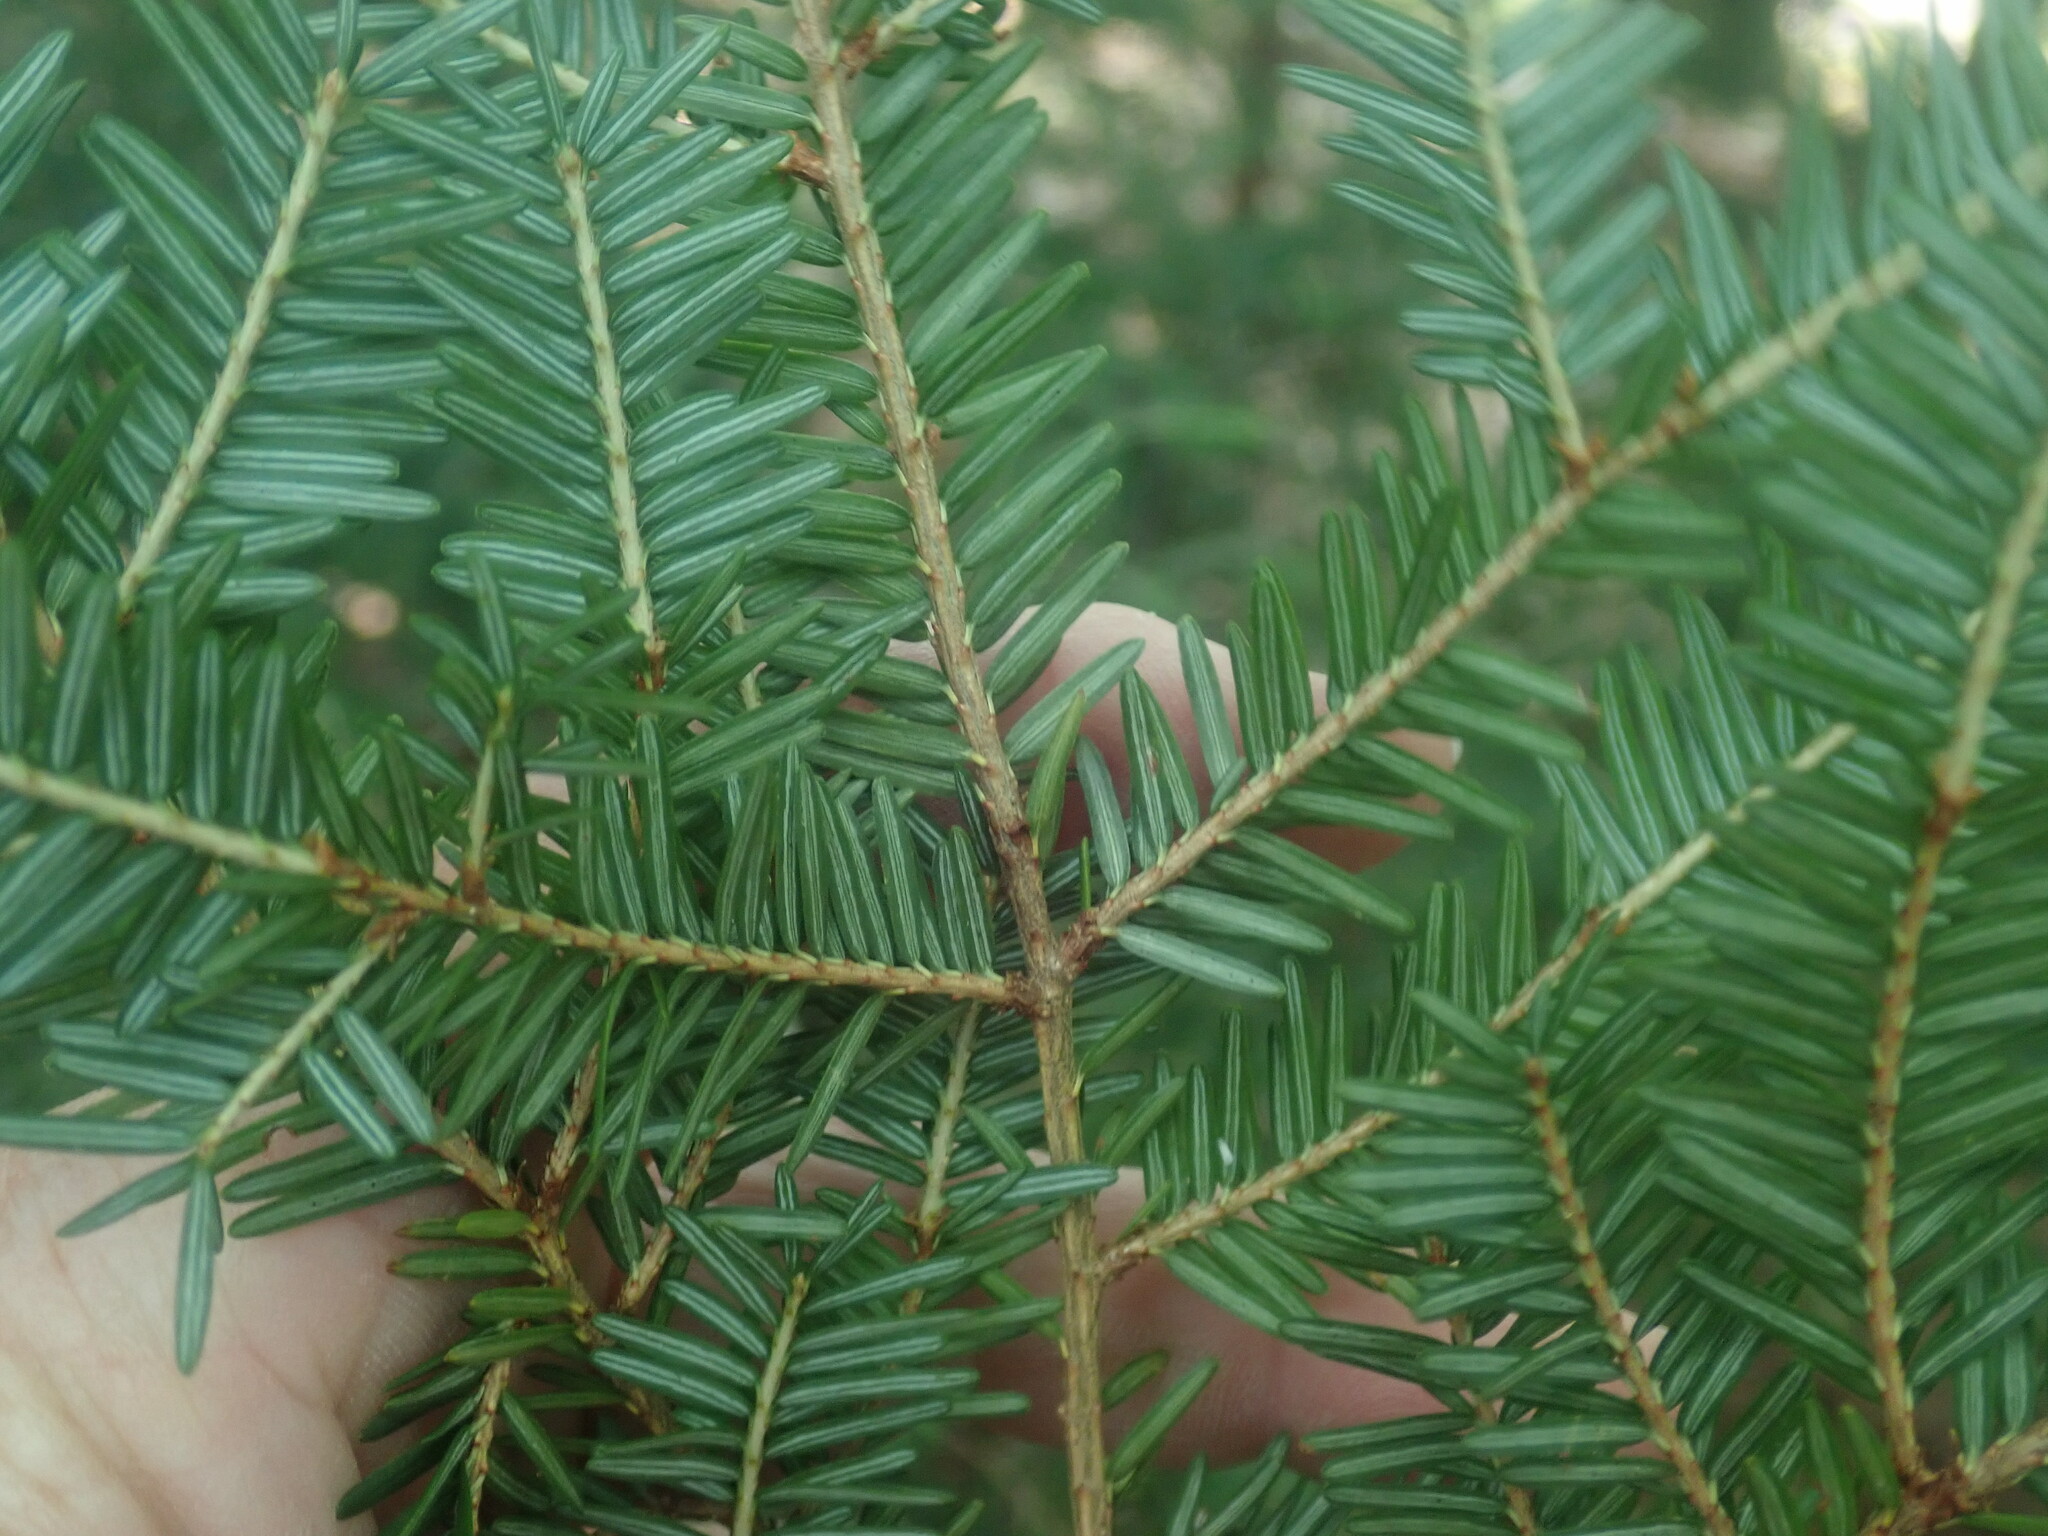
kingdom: Plantae
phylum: Tracheophyta
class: Pinopsida
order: Pinales
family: Pinaceae
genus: Tsuga
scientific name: Tsuga canadensis
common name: Eastern hemlock
